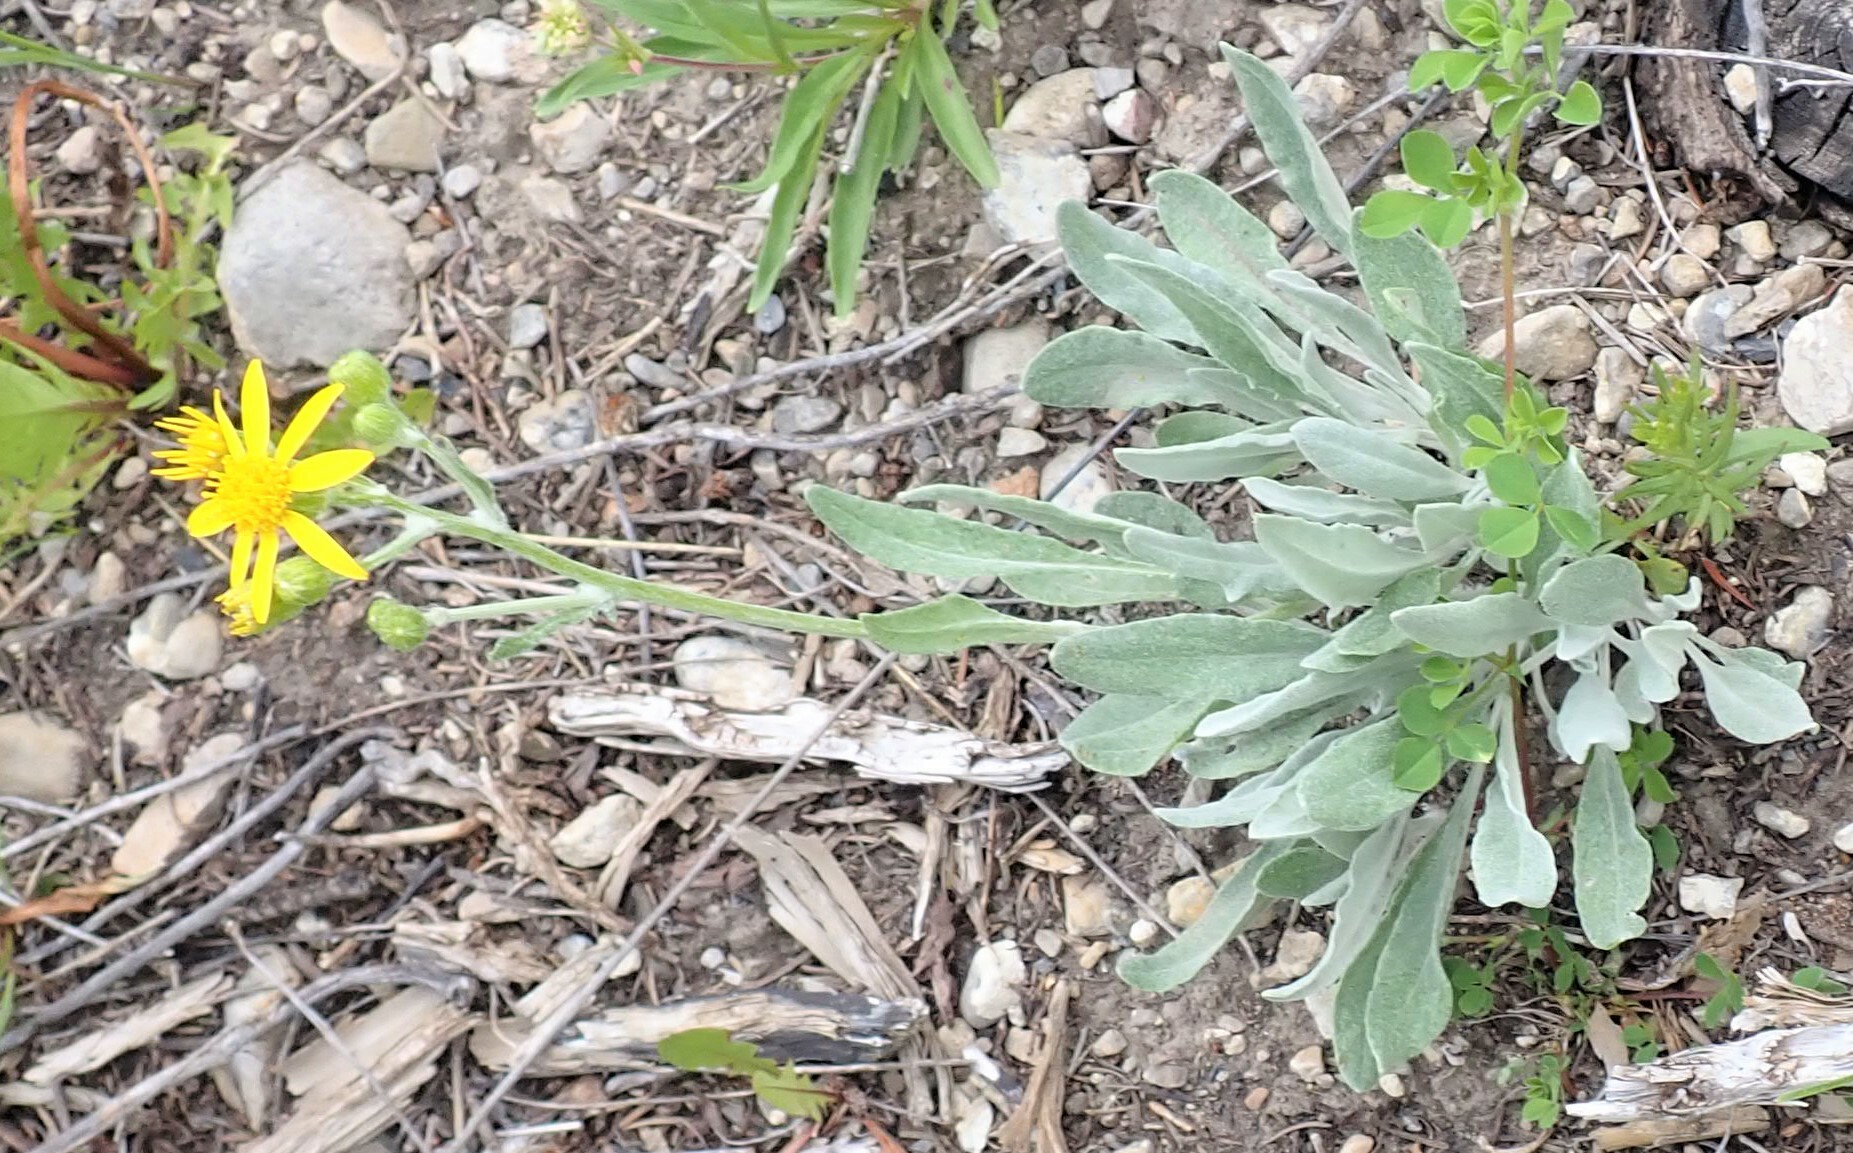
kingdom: Plantae
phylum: Tracheophyta
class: Magnoliopsida
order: Asterales
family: Asteraceae
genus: Packera
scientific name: Packera cana
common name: Woolly groundsel
